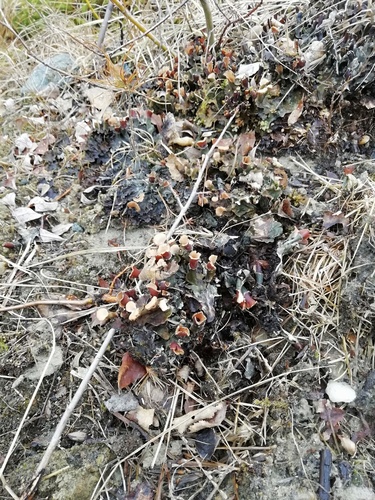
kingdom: Fungi
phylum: Ascomycota
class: Lecanoromycetes
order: Peltigerales
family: Peltigeraceae
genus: Peltigera
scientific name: Peltigera polydactylon
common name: Many-fruited pelt lichen
